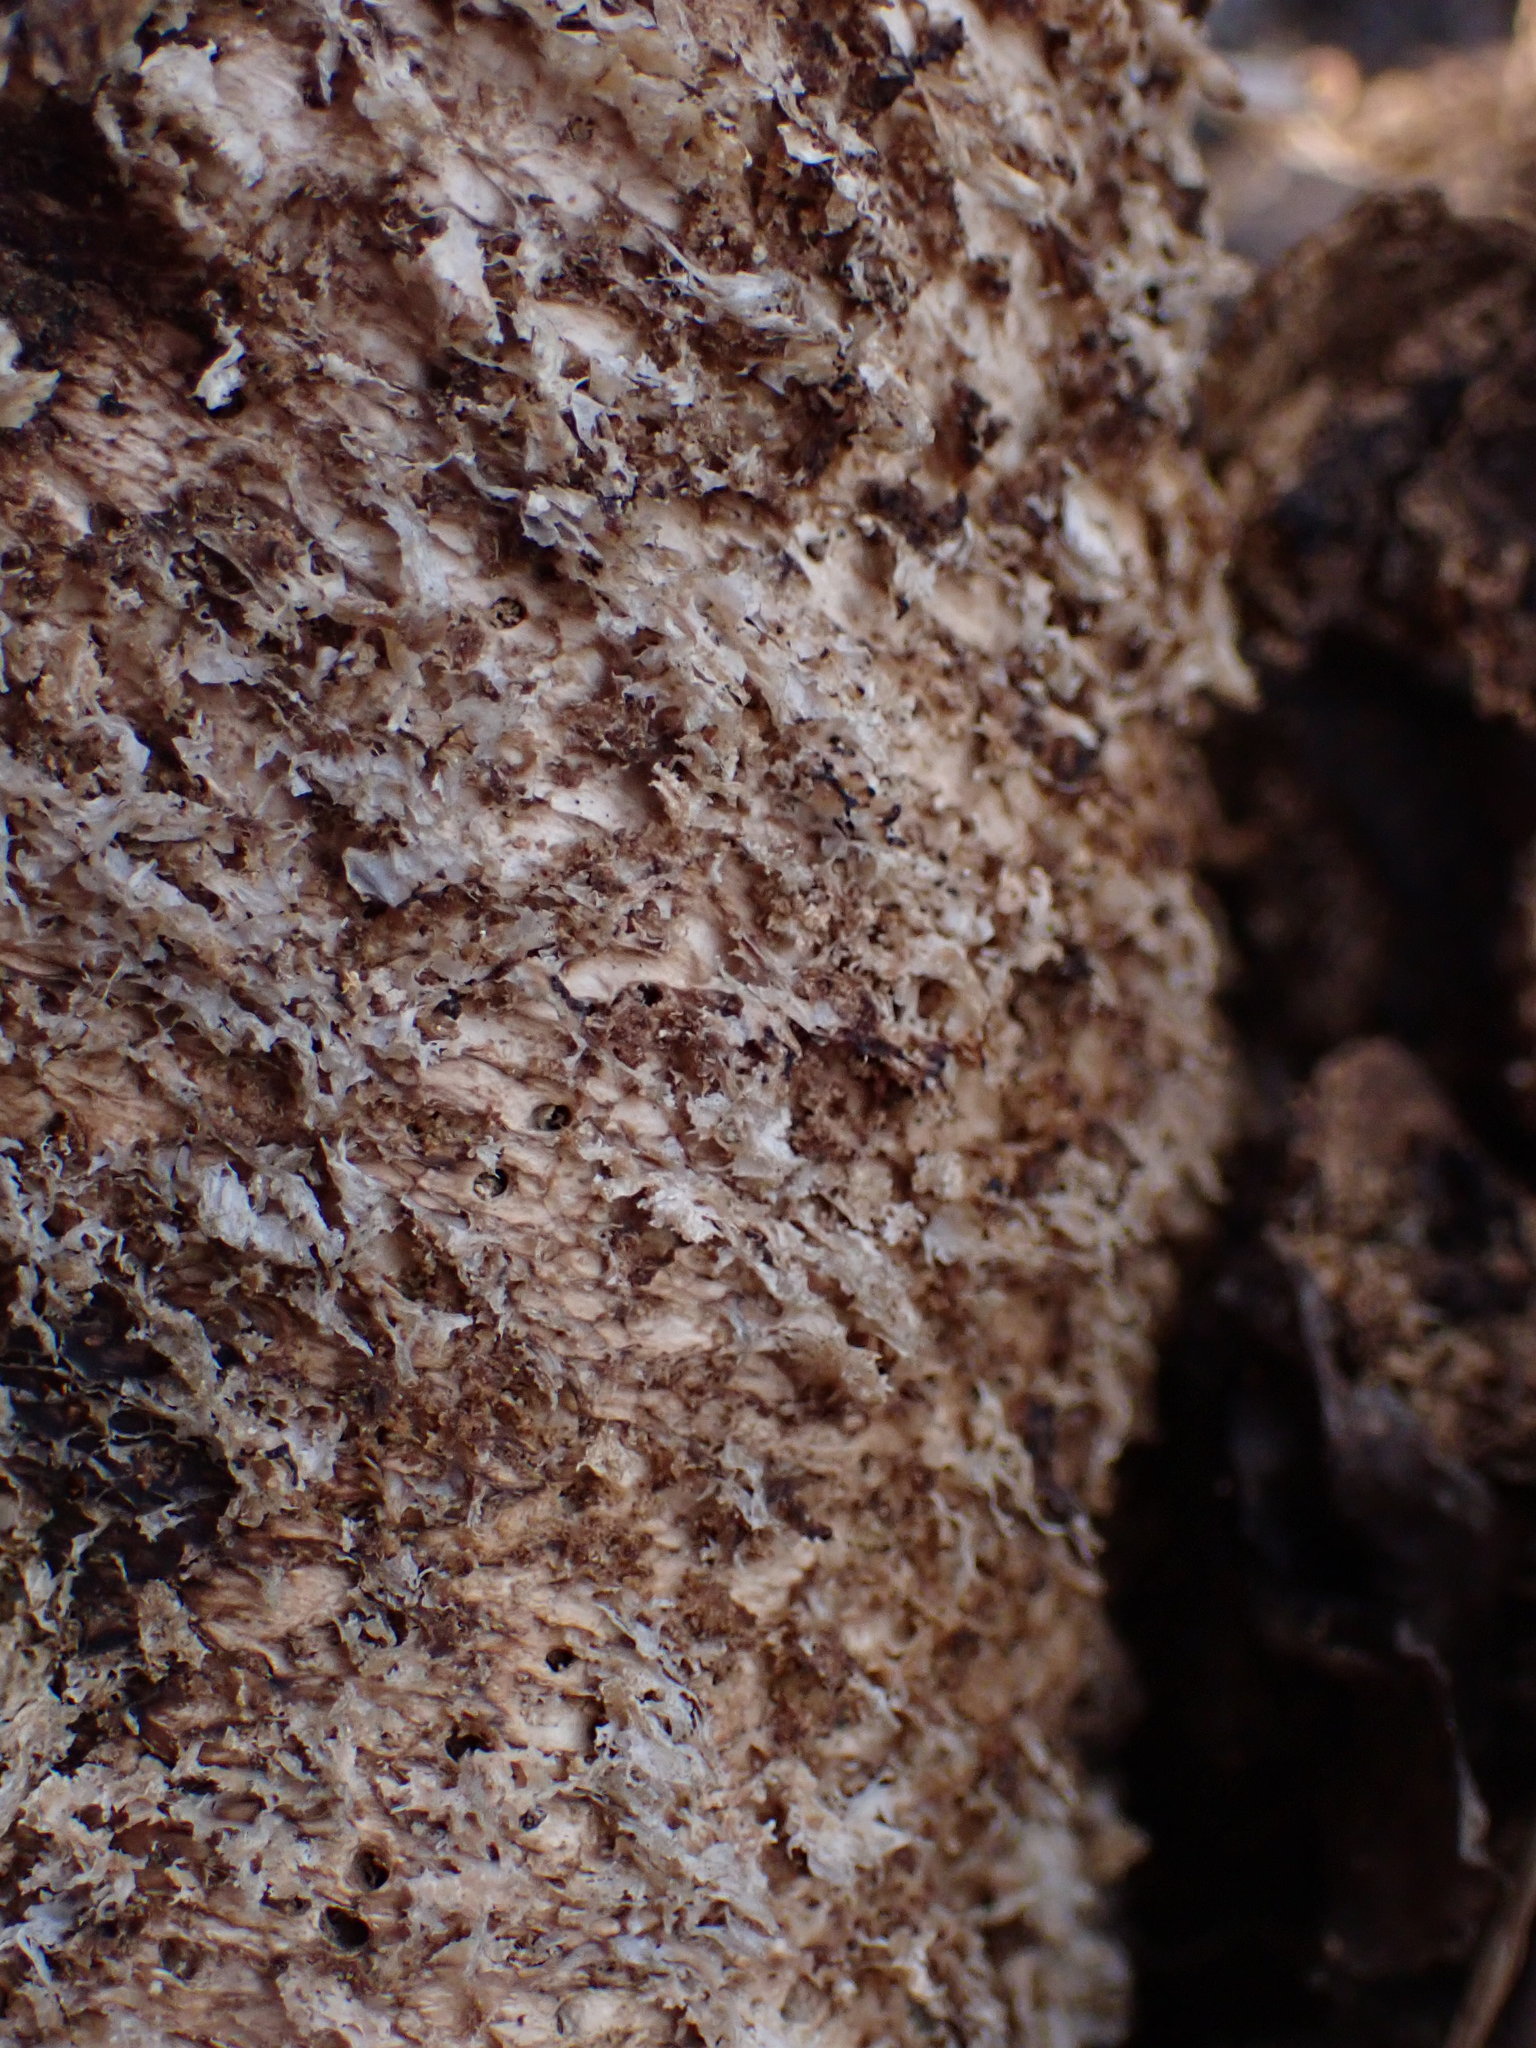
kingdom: Fungi
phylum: Basidiomycota
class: Agaricomycetes
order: Polyporales
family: Polyporaceae
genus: Cerioporus
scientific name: Cerioporus squamosus
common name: Dryad's saddle
